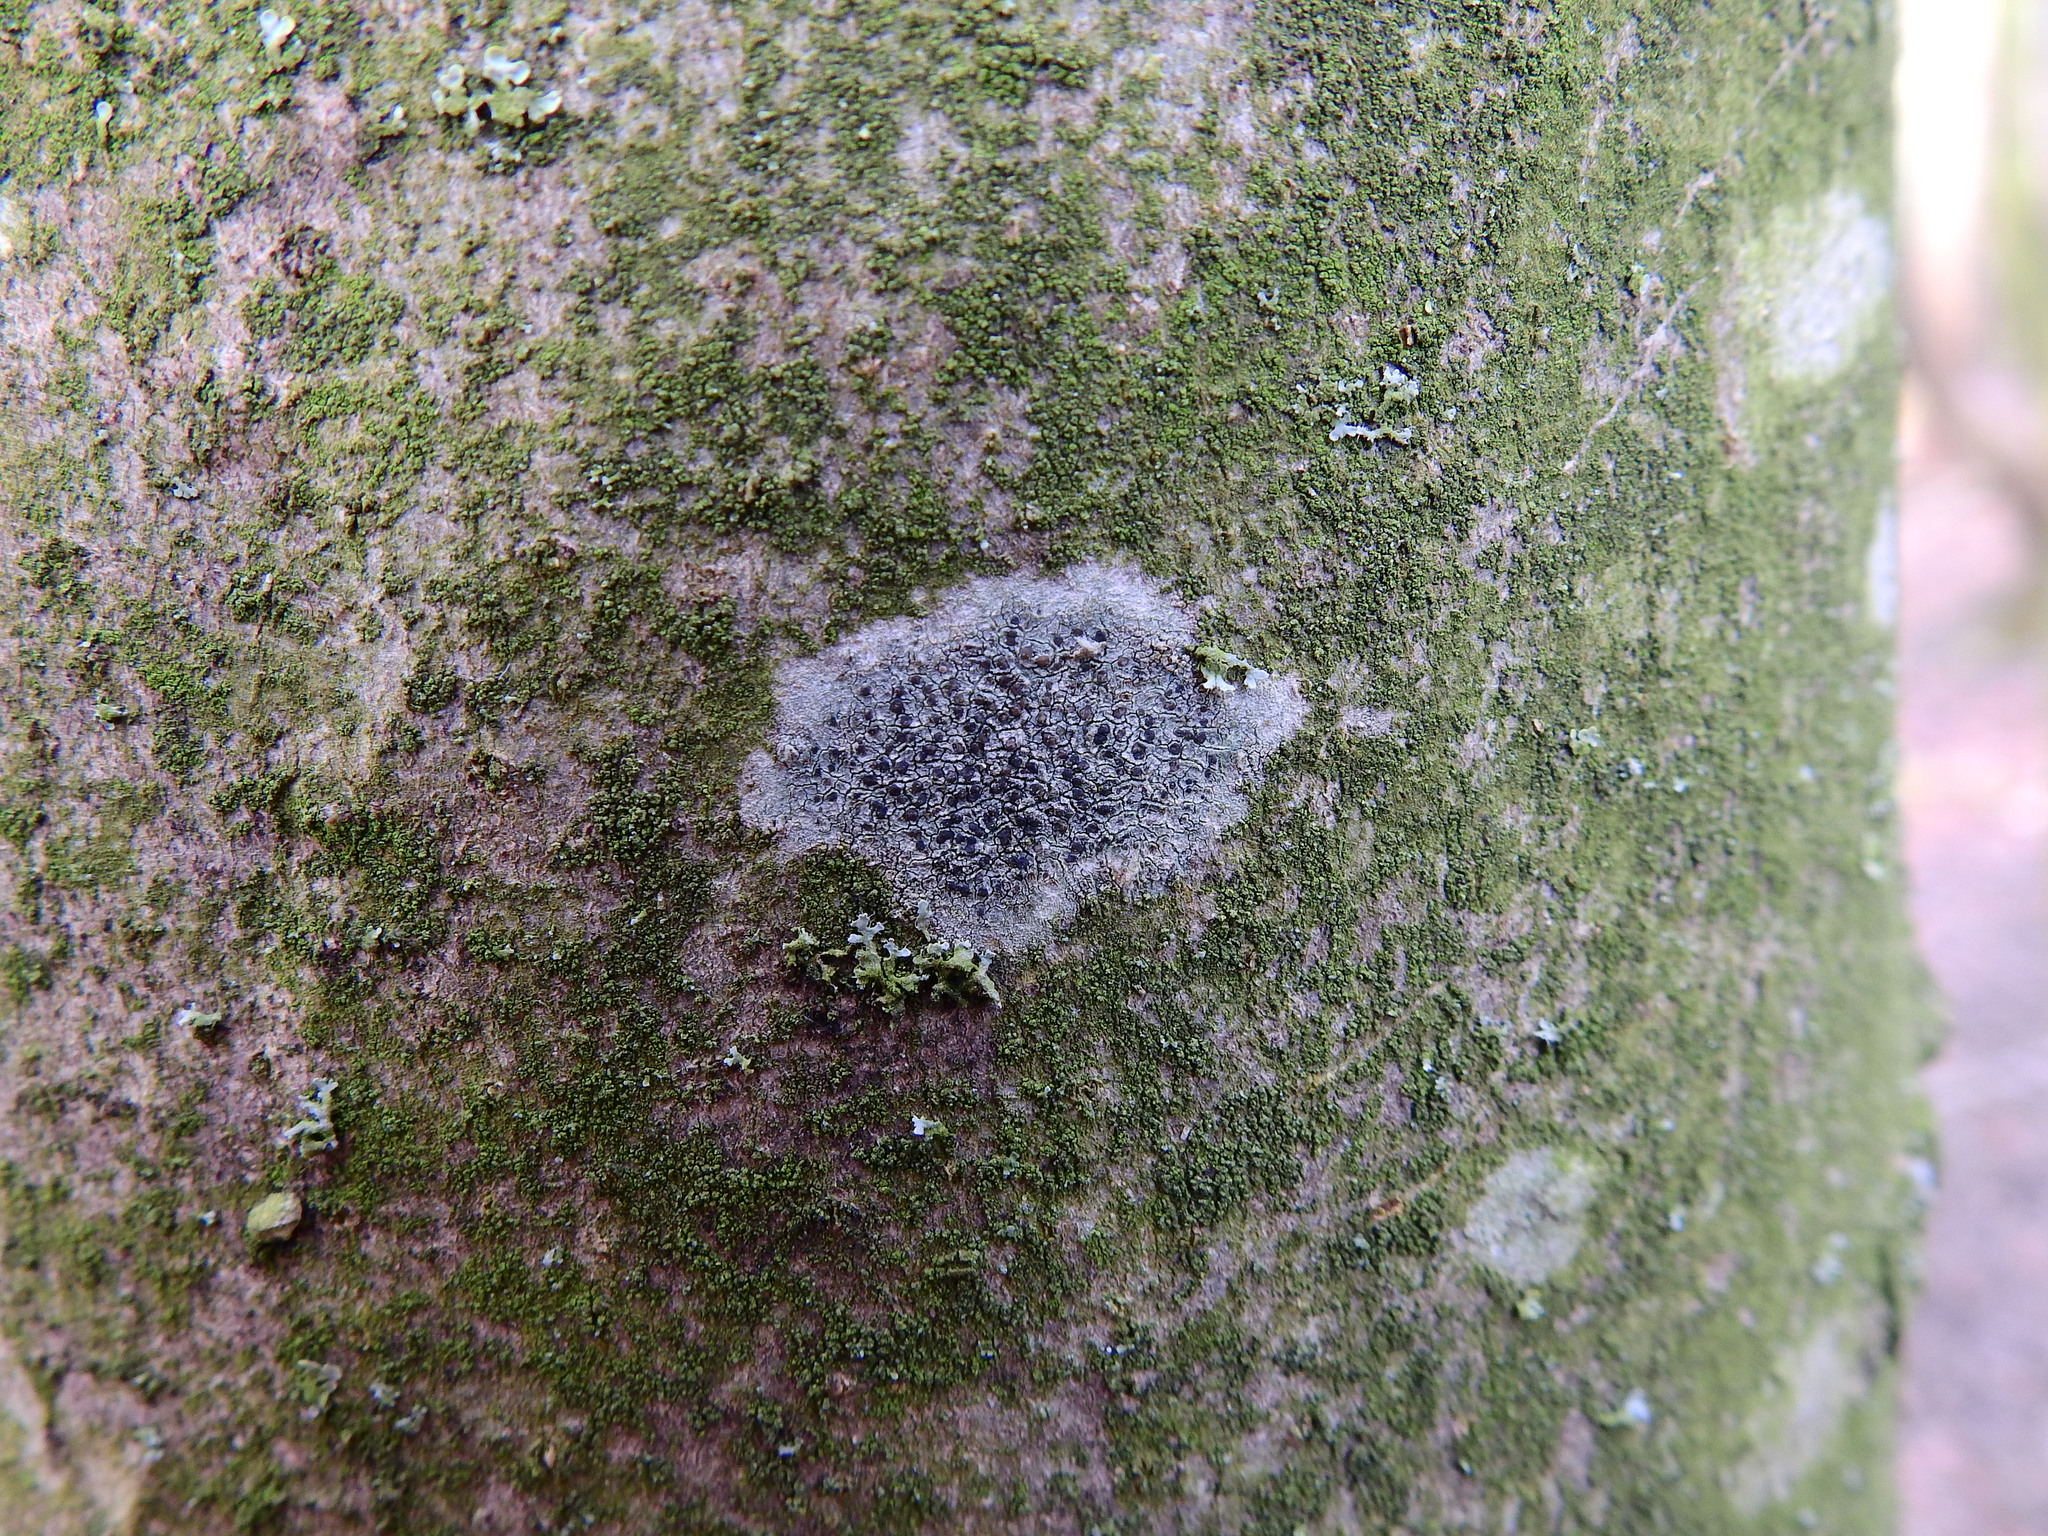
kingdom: Fungi
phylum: Ascomycota
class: Lecanoromycetes
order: Lecanorales
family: Lecanoraceae
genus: Lecidella
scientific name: Lecidella elaeochroma
